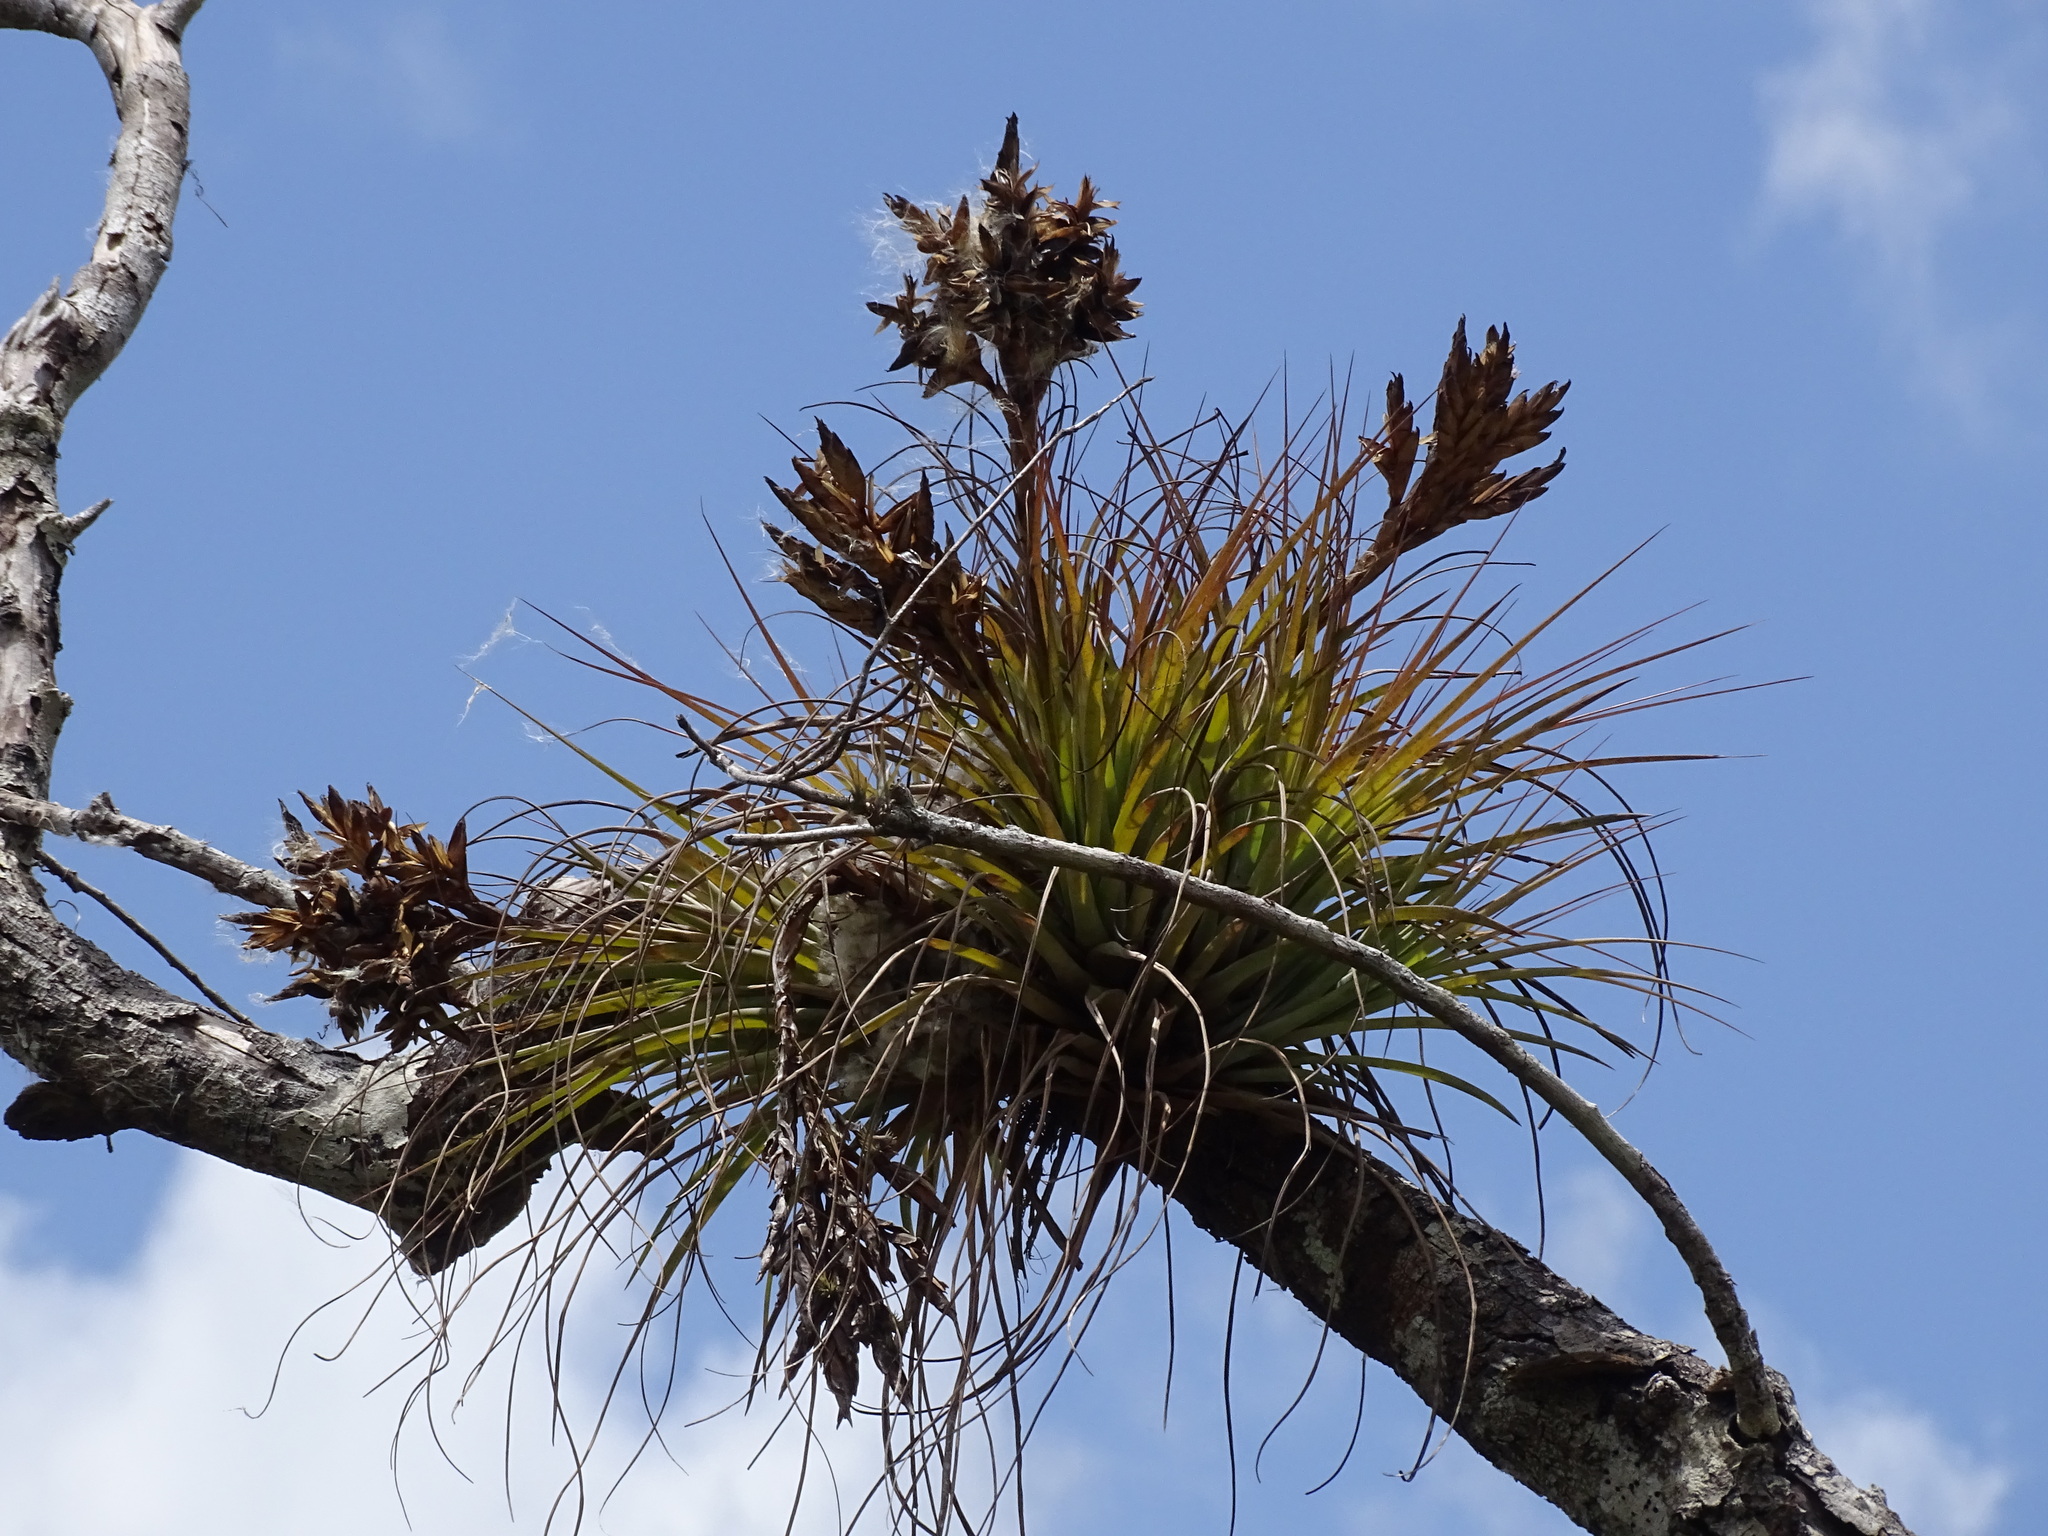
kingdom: Plantae
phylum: Tracheophyta
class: Liliopsida
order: Poales
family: Bromeliaceae
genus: Tillandsia
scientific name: Tillandsia fasciculata
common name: Giant airplant
